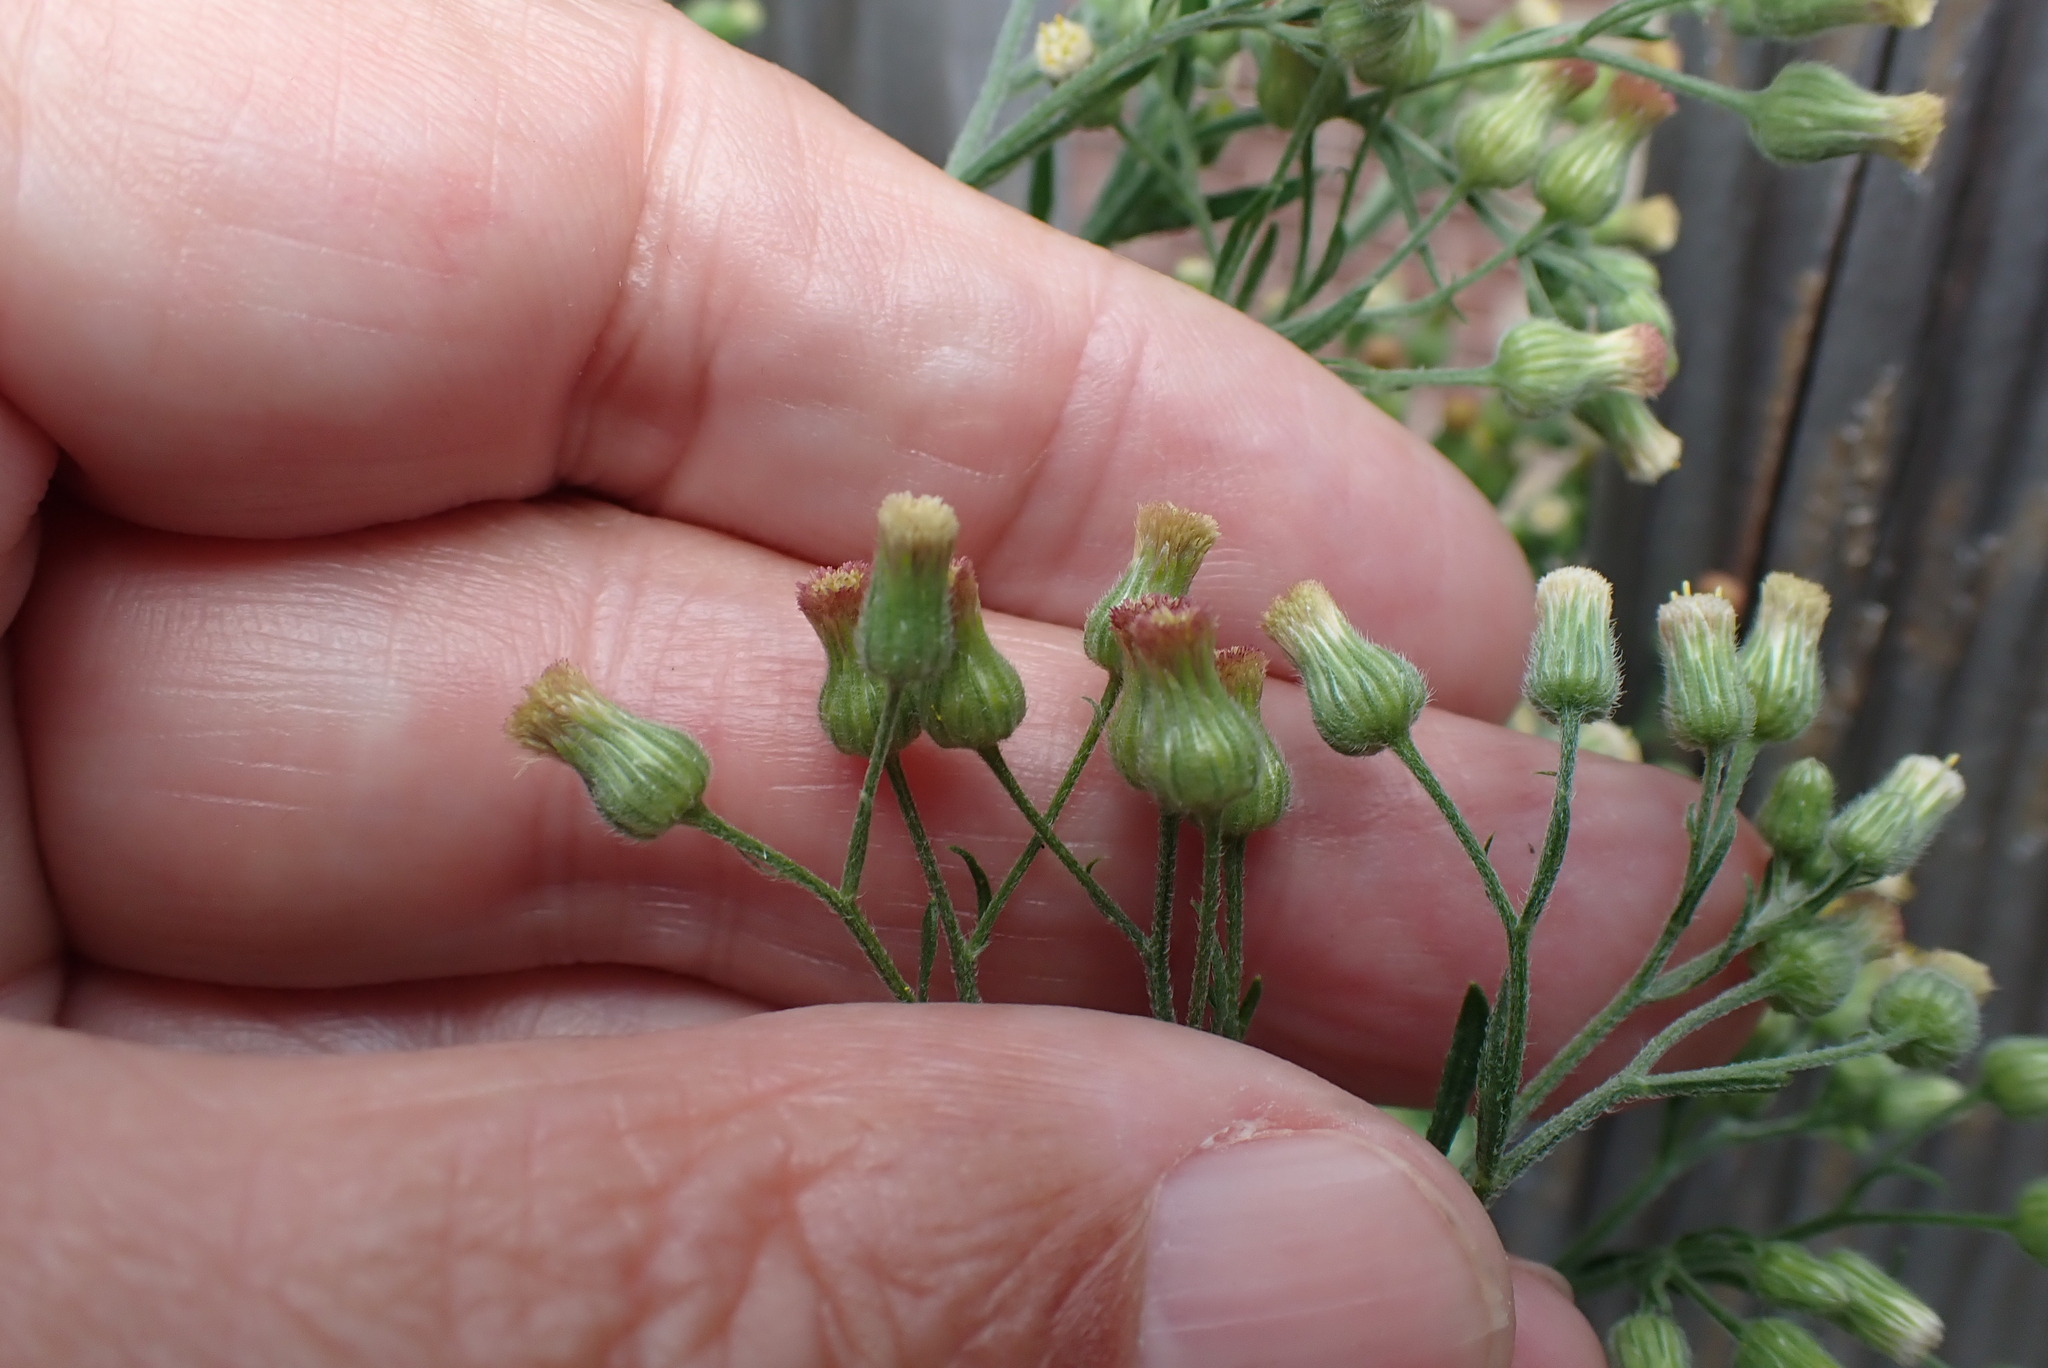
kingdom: Plantae
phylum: Tracheophyta
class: Magnoliopsida
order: Asterales
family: Asteraceae
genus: Erigeron
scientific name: Erigeron sumatrensis
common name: Daisy
